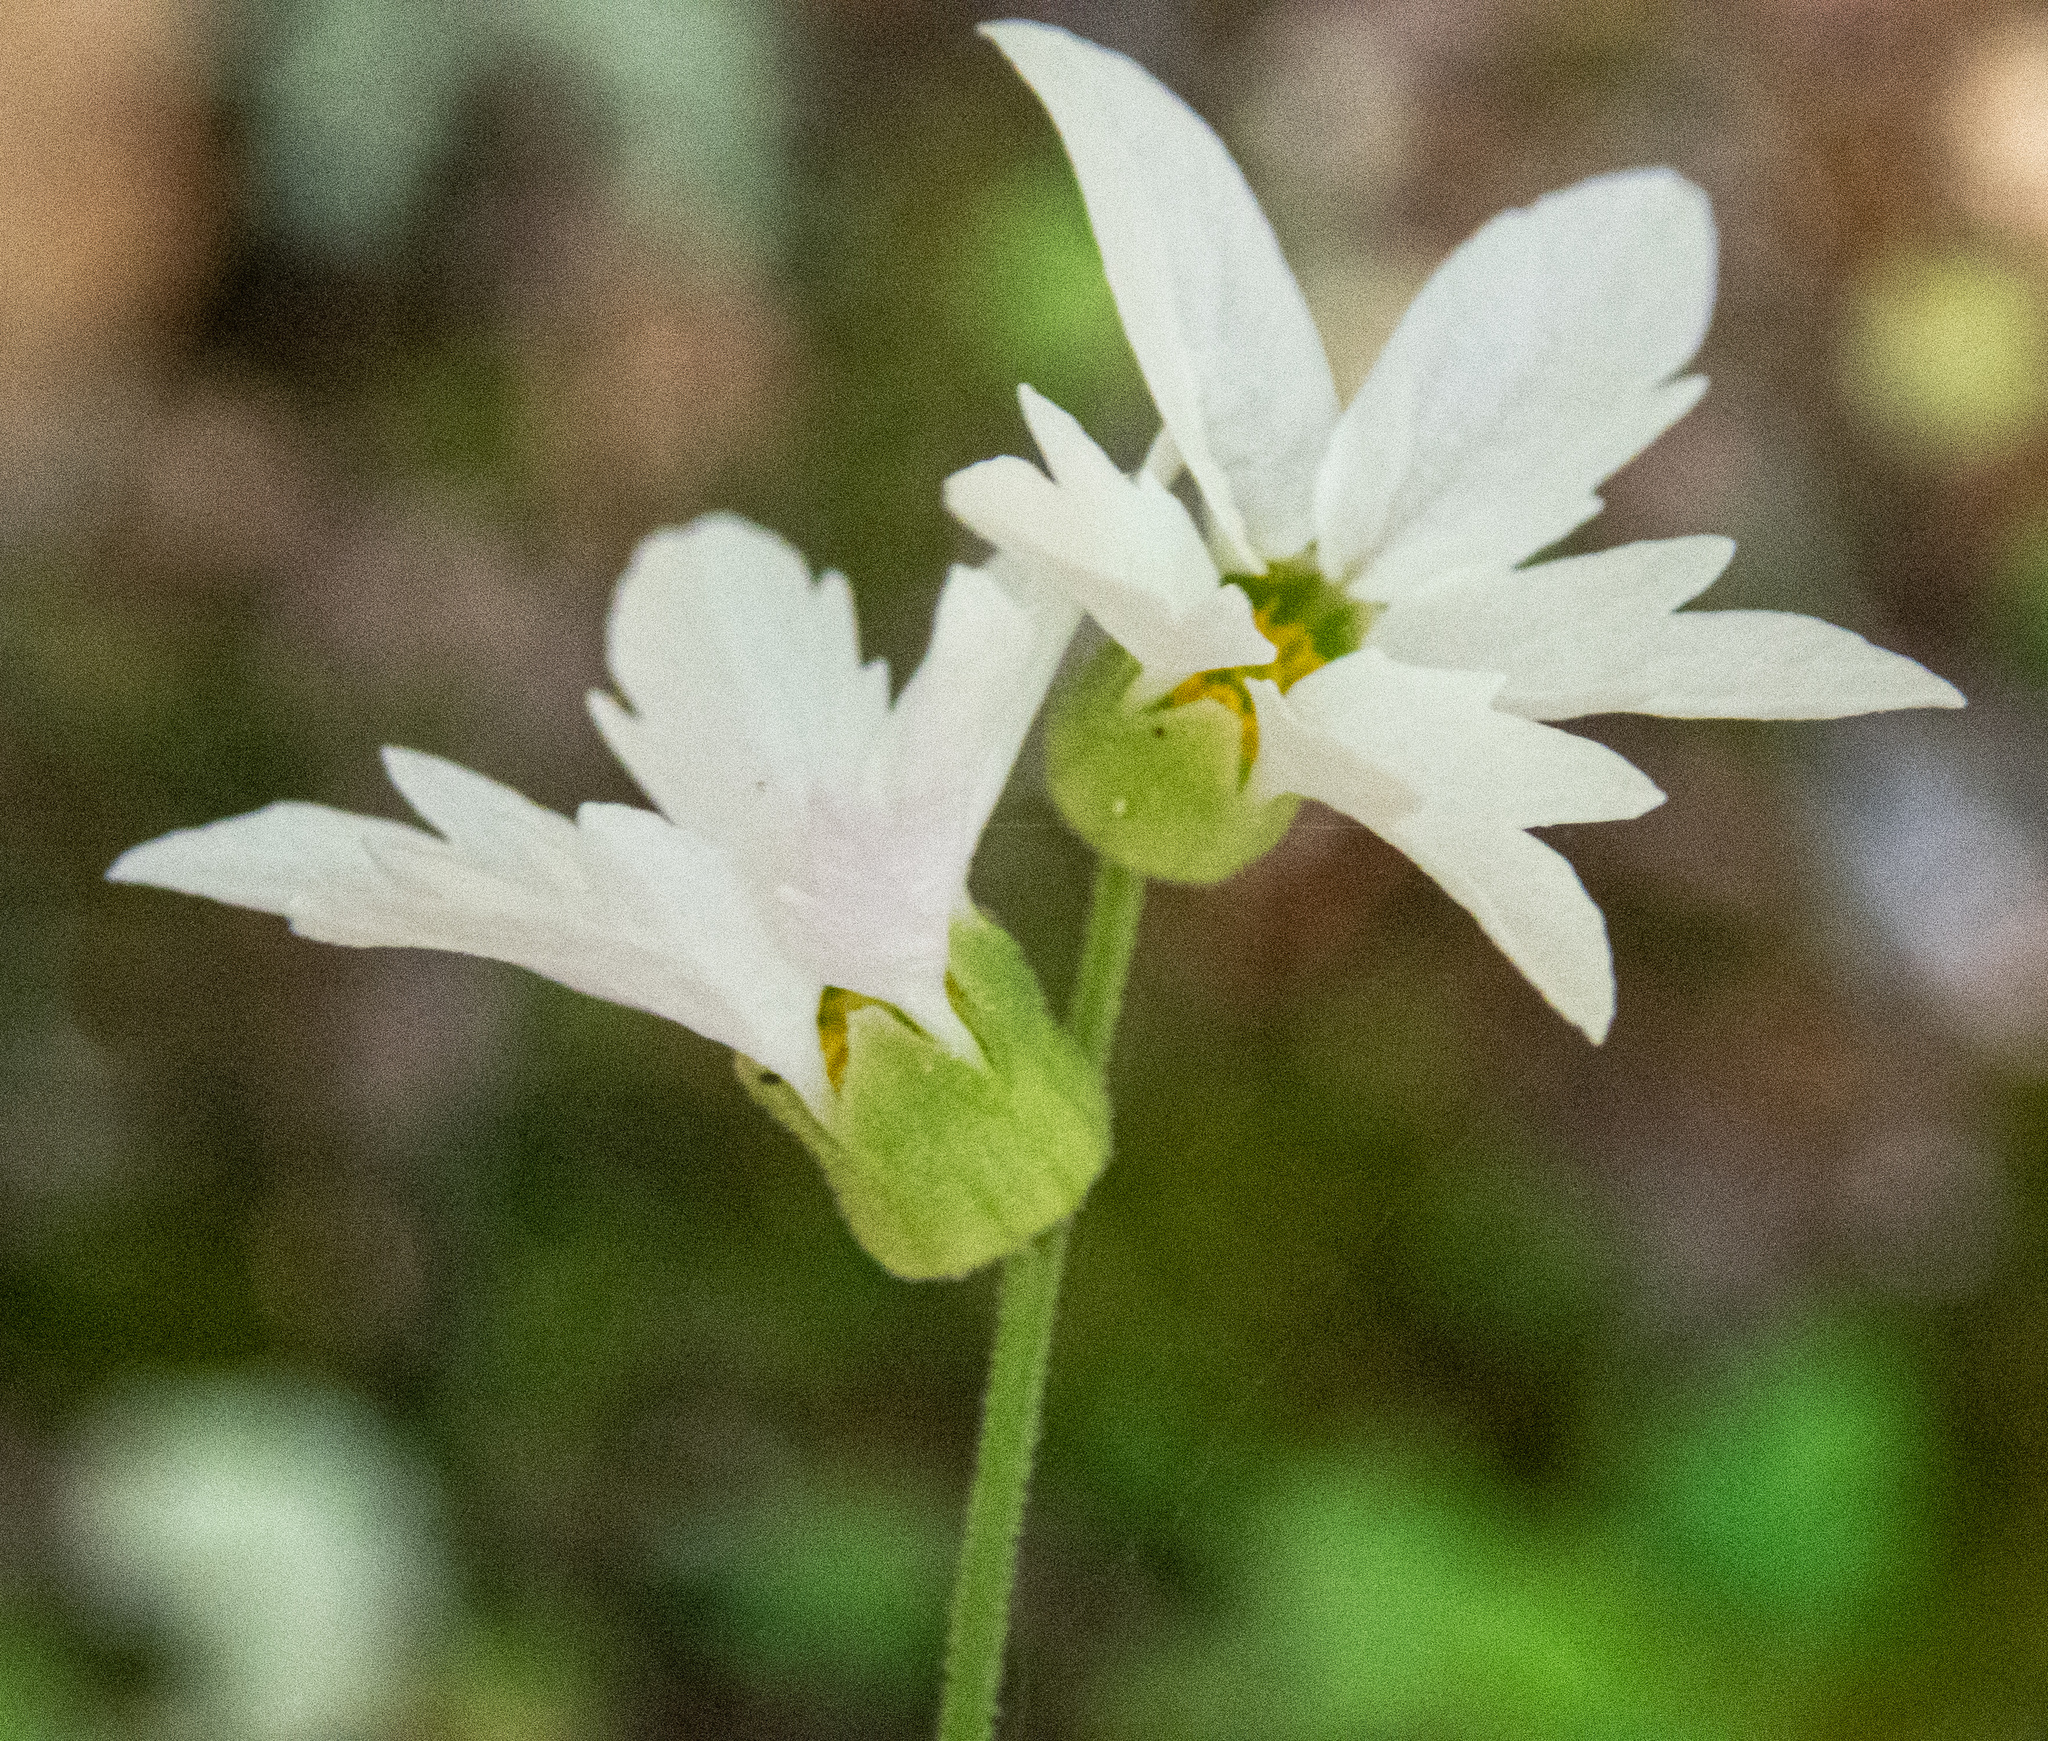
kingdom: Plantae
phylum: Tracheophyta
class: Magnoliopsida
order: Saxifragales
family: Saxifragaceae
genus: Lithophragma
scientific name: Lithophragma heterophyllum
